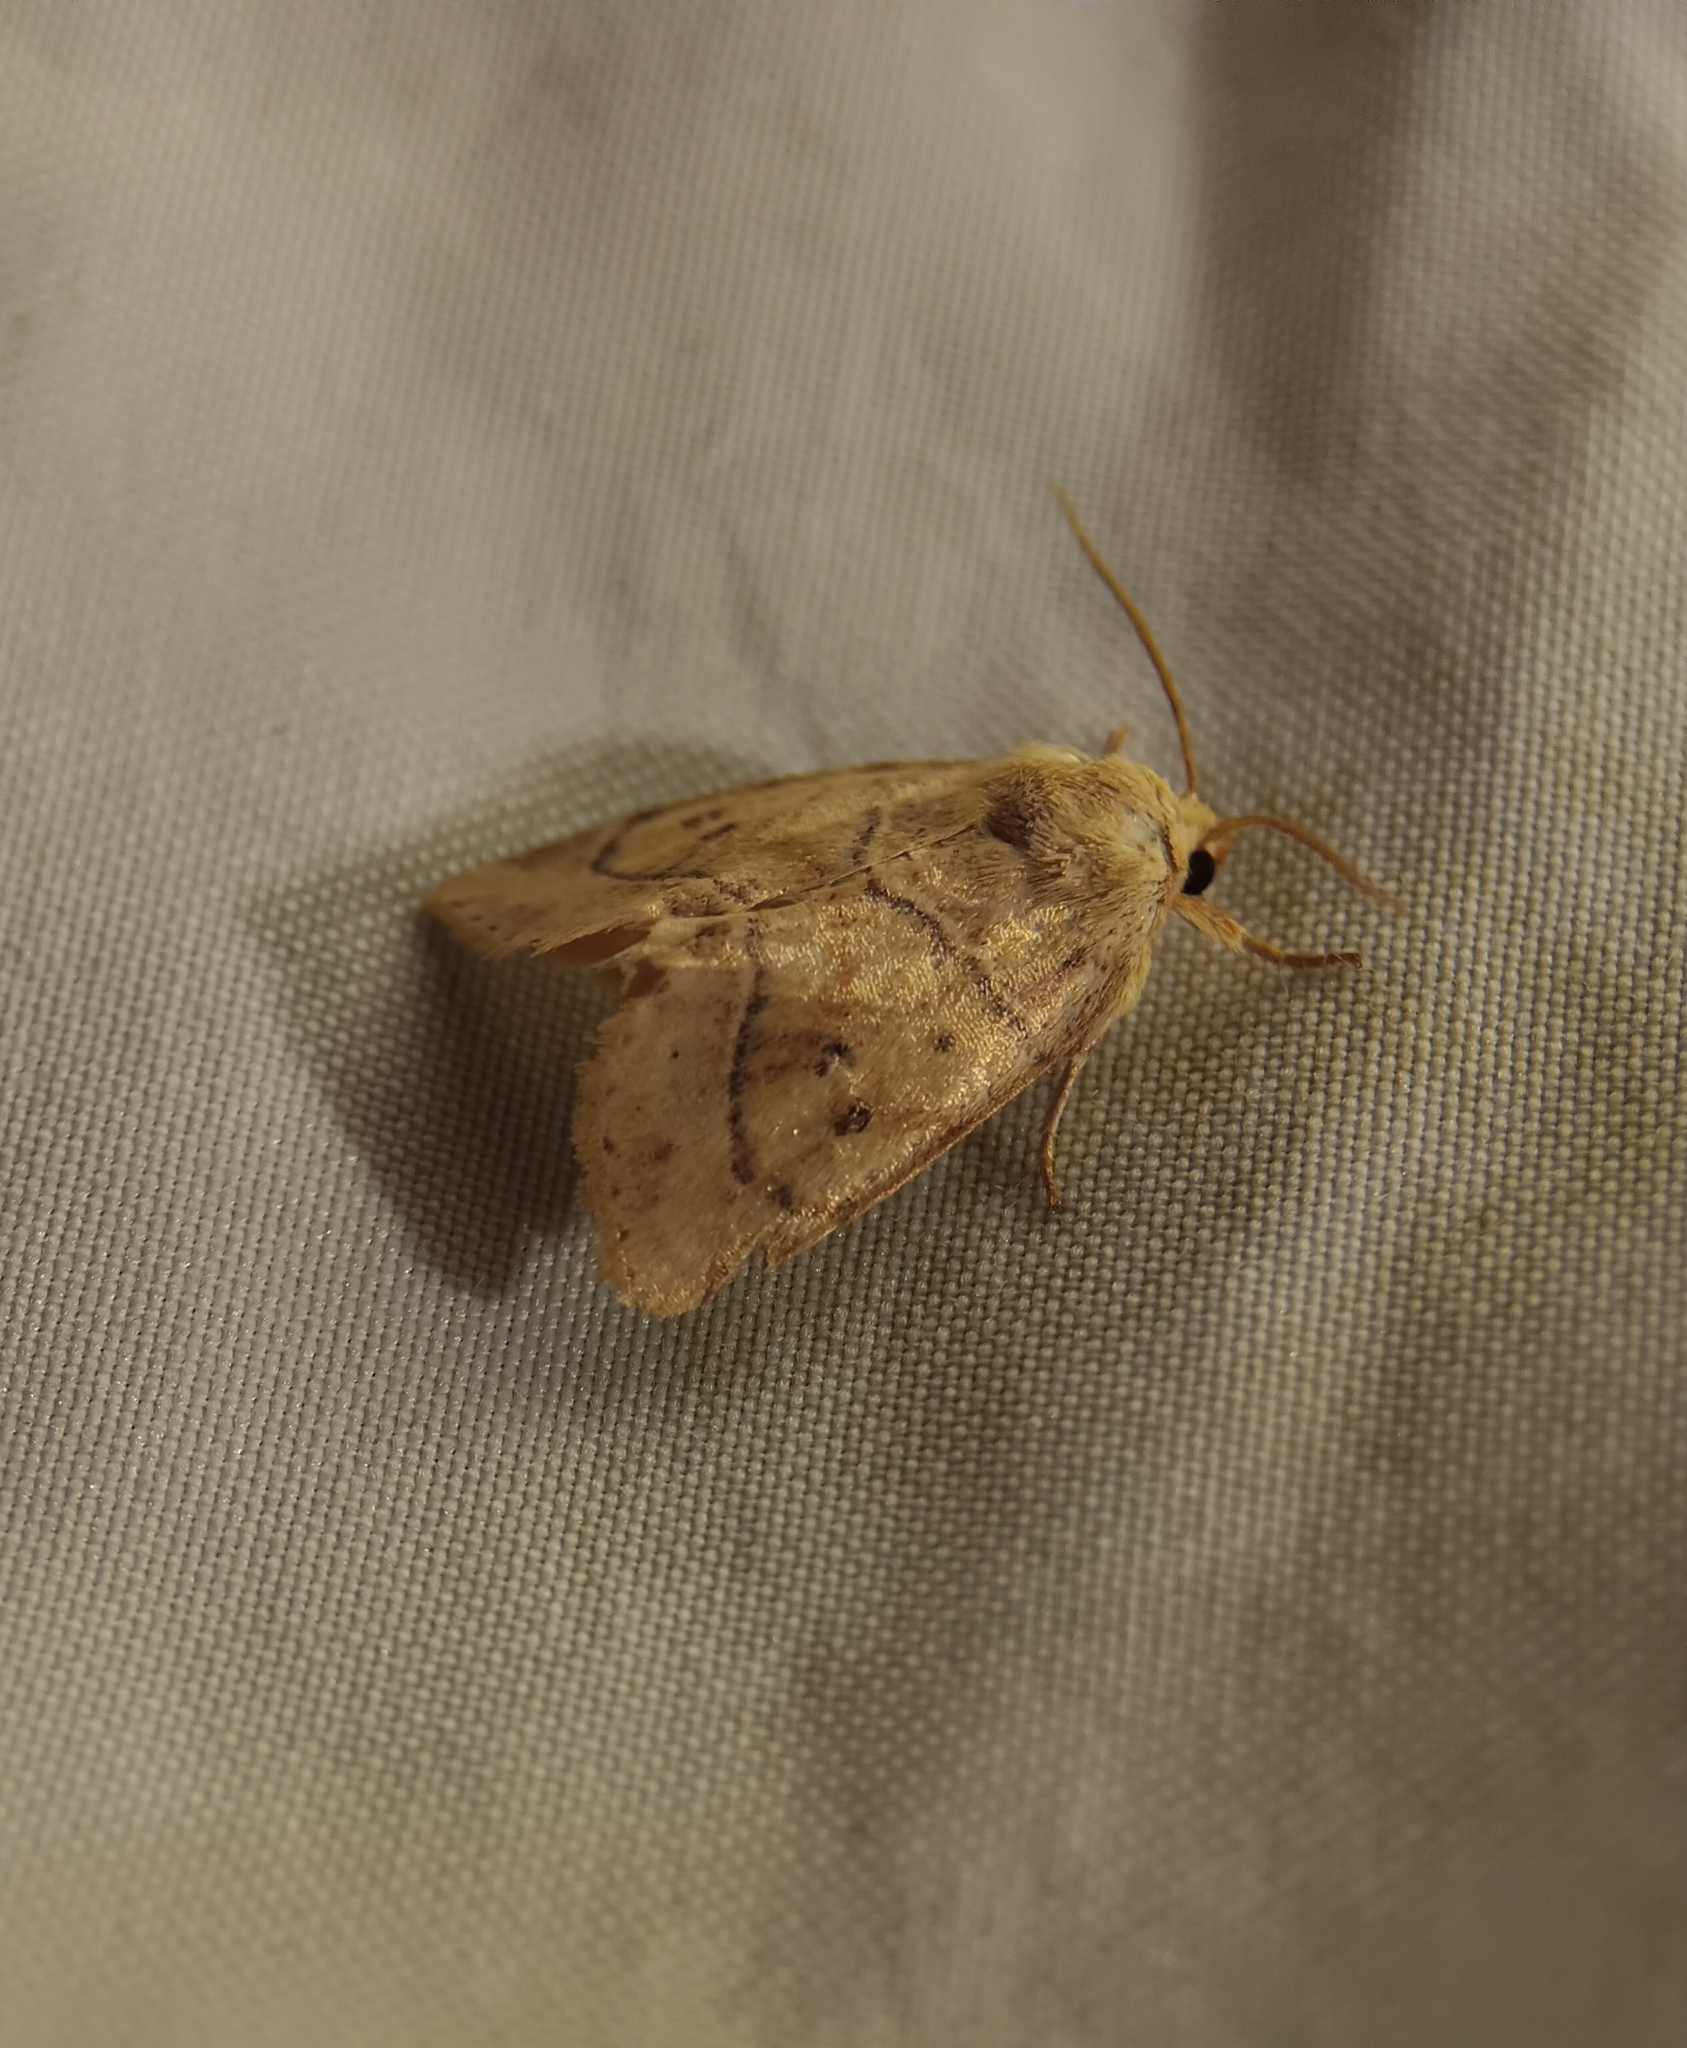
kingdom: Animalia
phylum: Arthropoda
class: Insecta
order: Lepidoptera
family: Noctuidae
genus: Cosmia
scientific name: Cosmia calami
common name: American dun-bar moth
